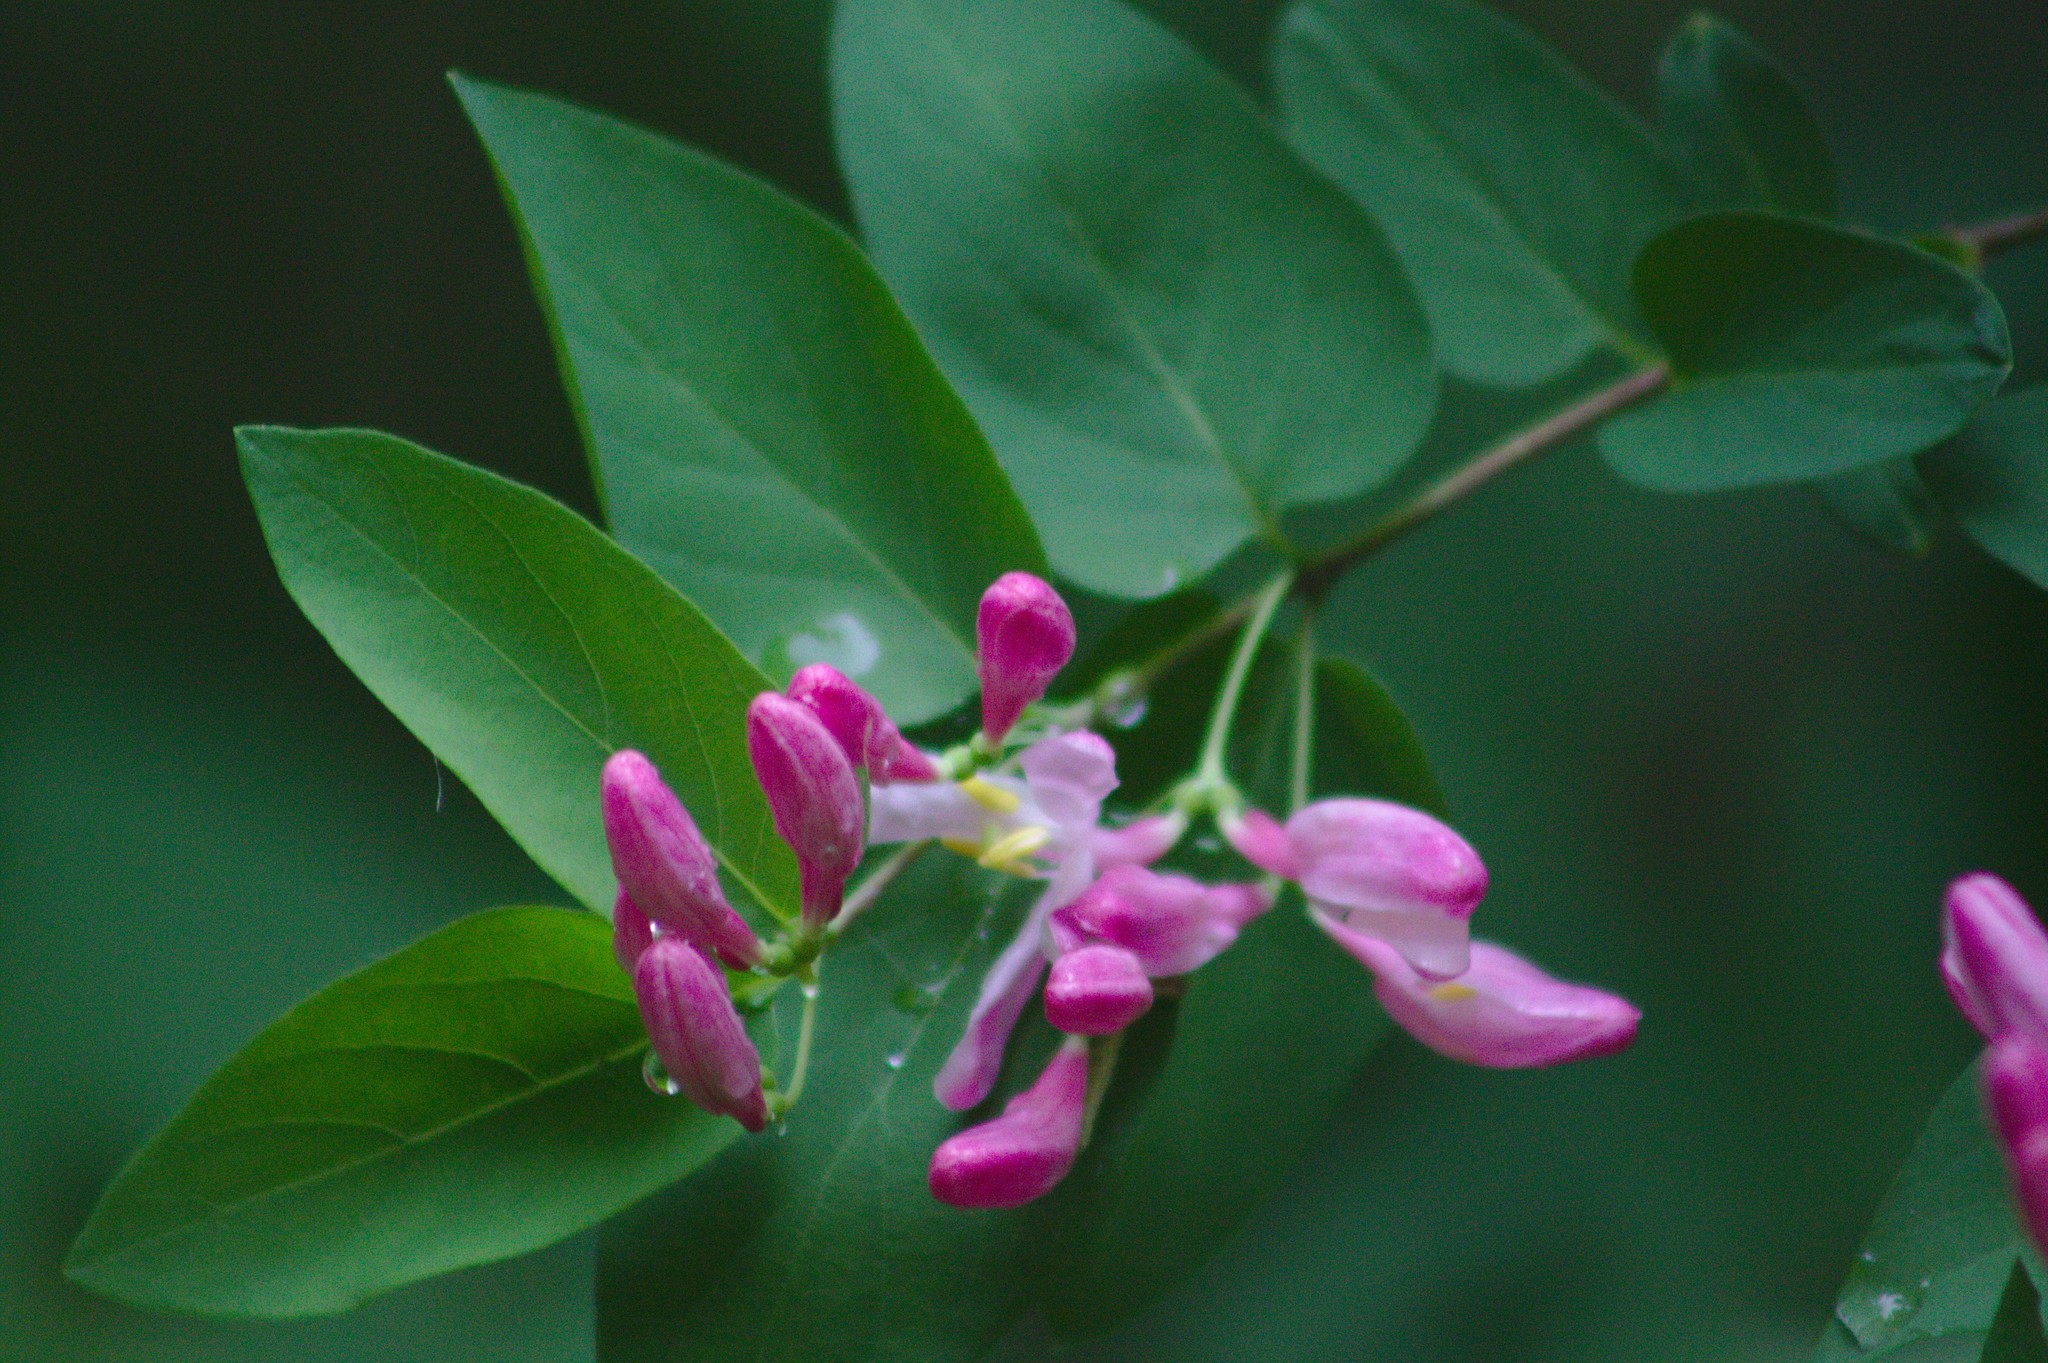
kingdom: Plantae
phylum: Tracheophyta
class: Magnoliopsida
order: Dipsacales
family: Caprifoliaceae
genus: Lonicera
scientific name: Lonicera bella
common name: Bell's honeysuckle
